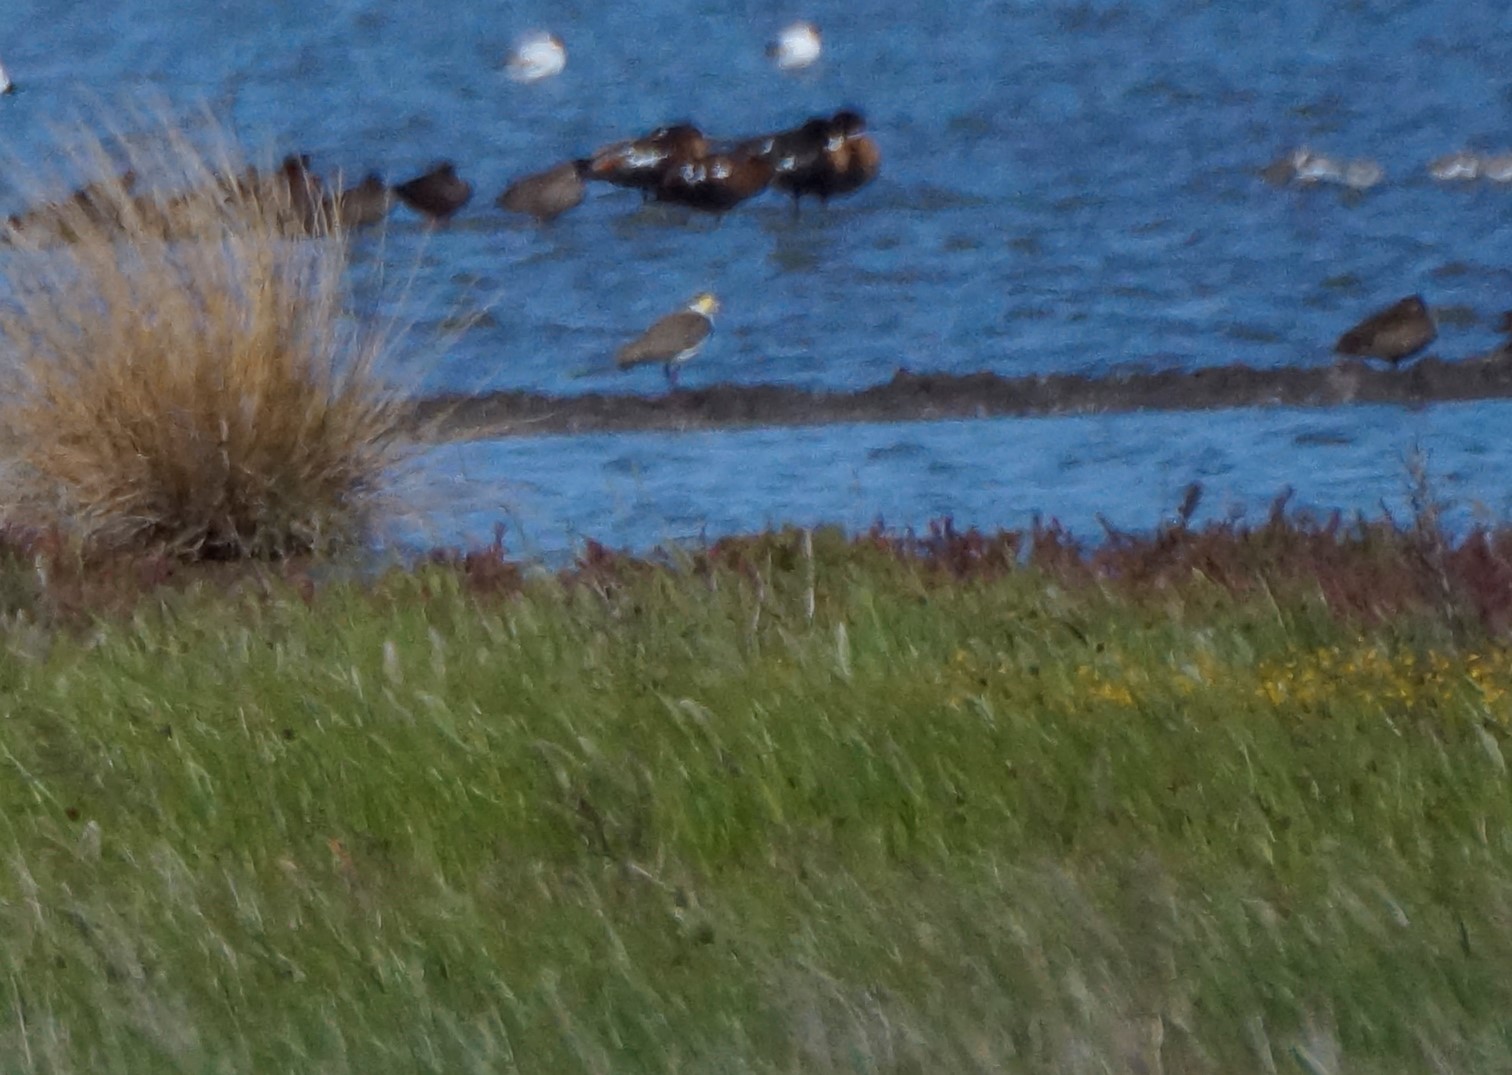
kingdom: Animalia
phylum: Chordata
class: Aves
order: Charadriiformes
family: Charadriidae
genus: Vanellus
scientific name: Vanellus miles
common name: Masked lapwing
